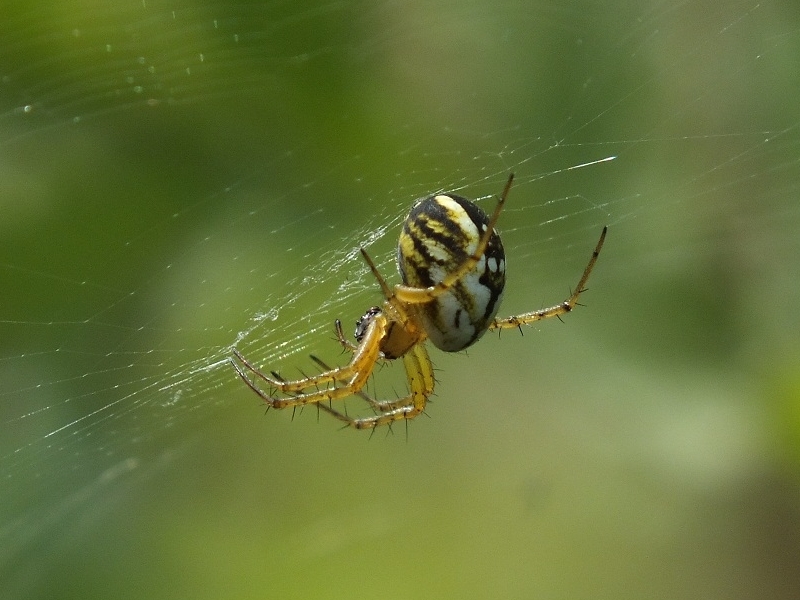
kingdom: Animalia
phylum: Arthropoda
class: Arachnida
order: Araneae
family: Araneidae
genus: Mangora
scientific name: Mangora acalypha
